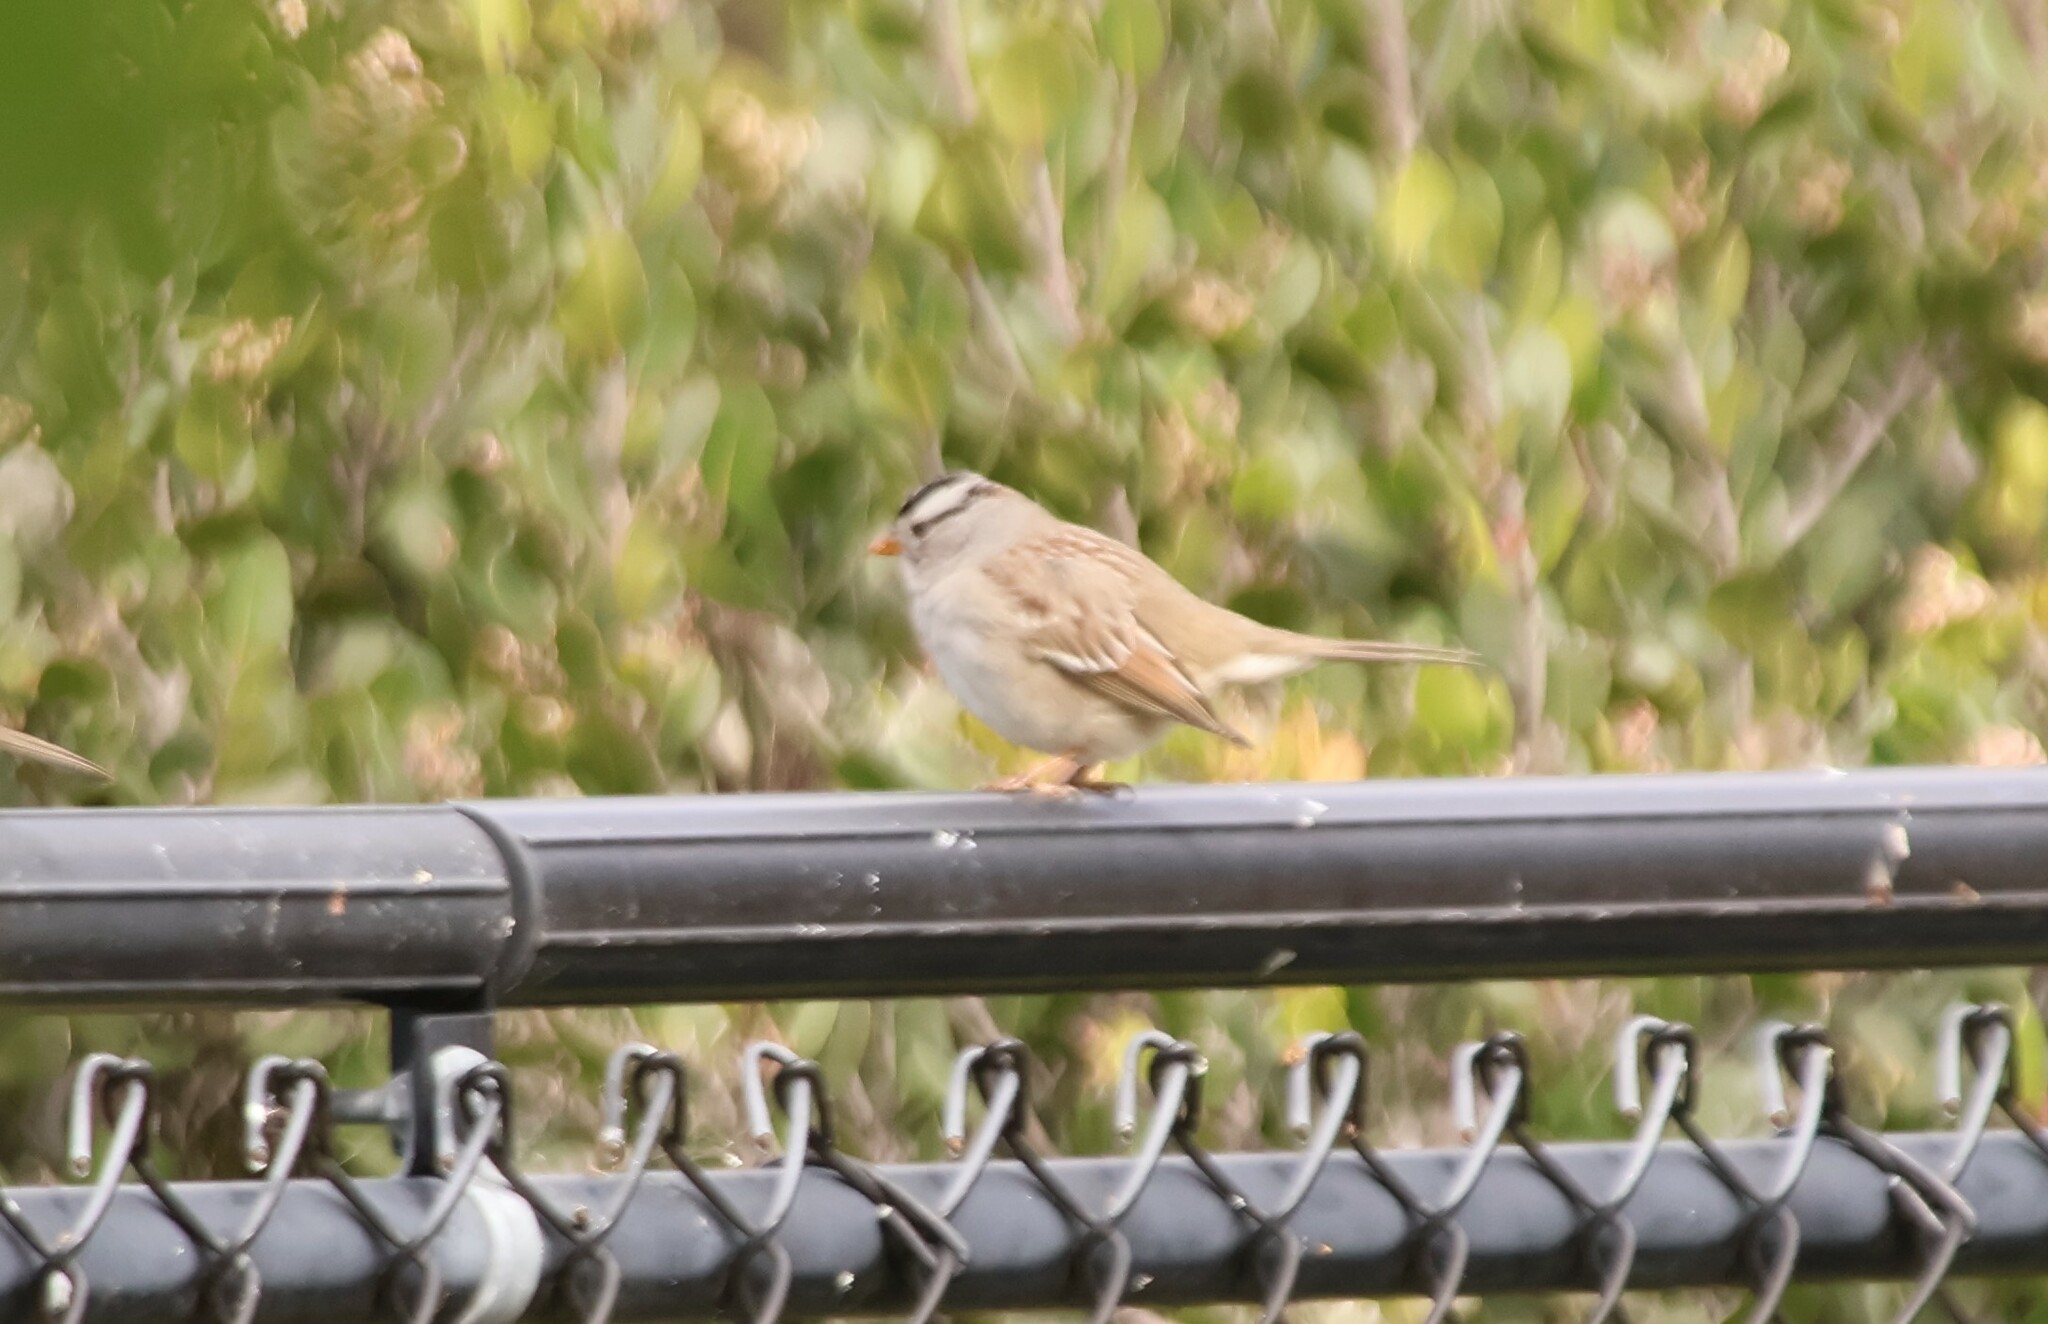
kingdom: Animalia
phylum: Chordata
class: Aves
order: Passeriformes
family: Passerellidae
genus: Zonotrichia
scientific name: Zonotrichia leucophrys
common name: White-crowned sparrow
